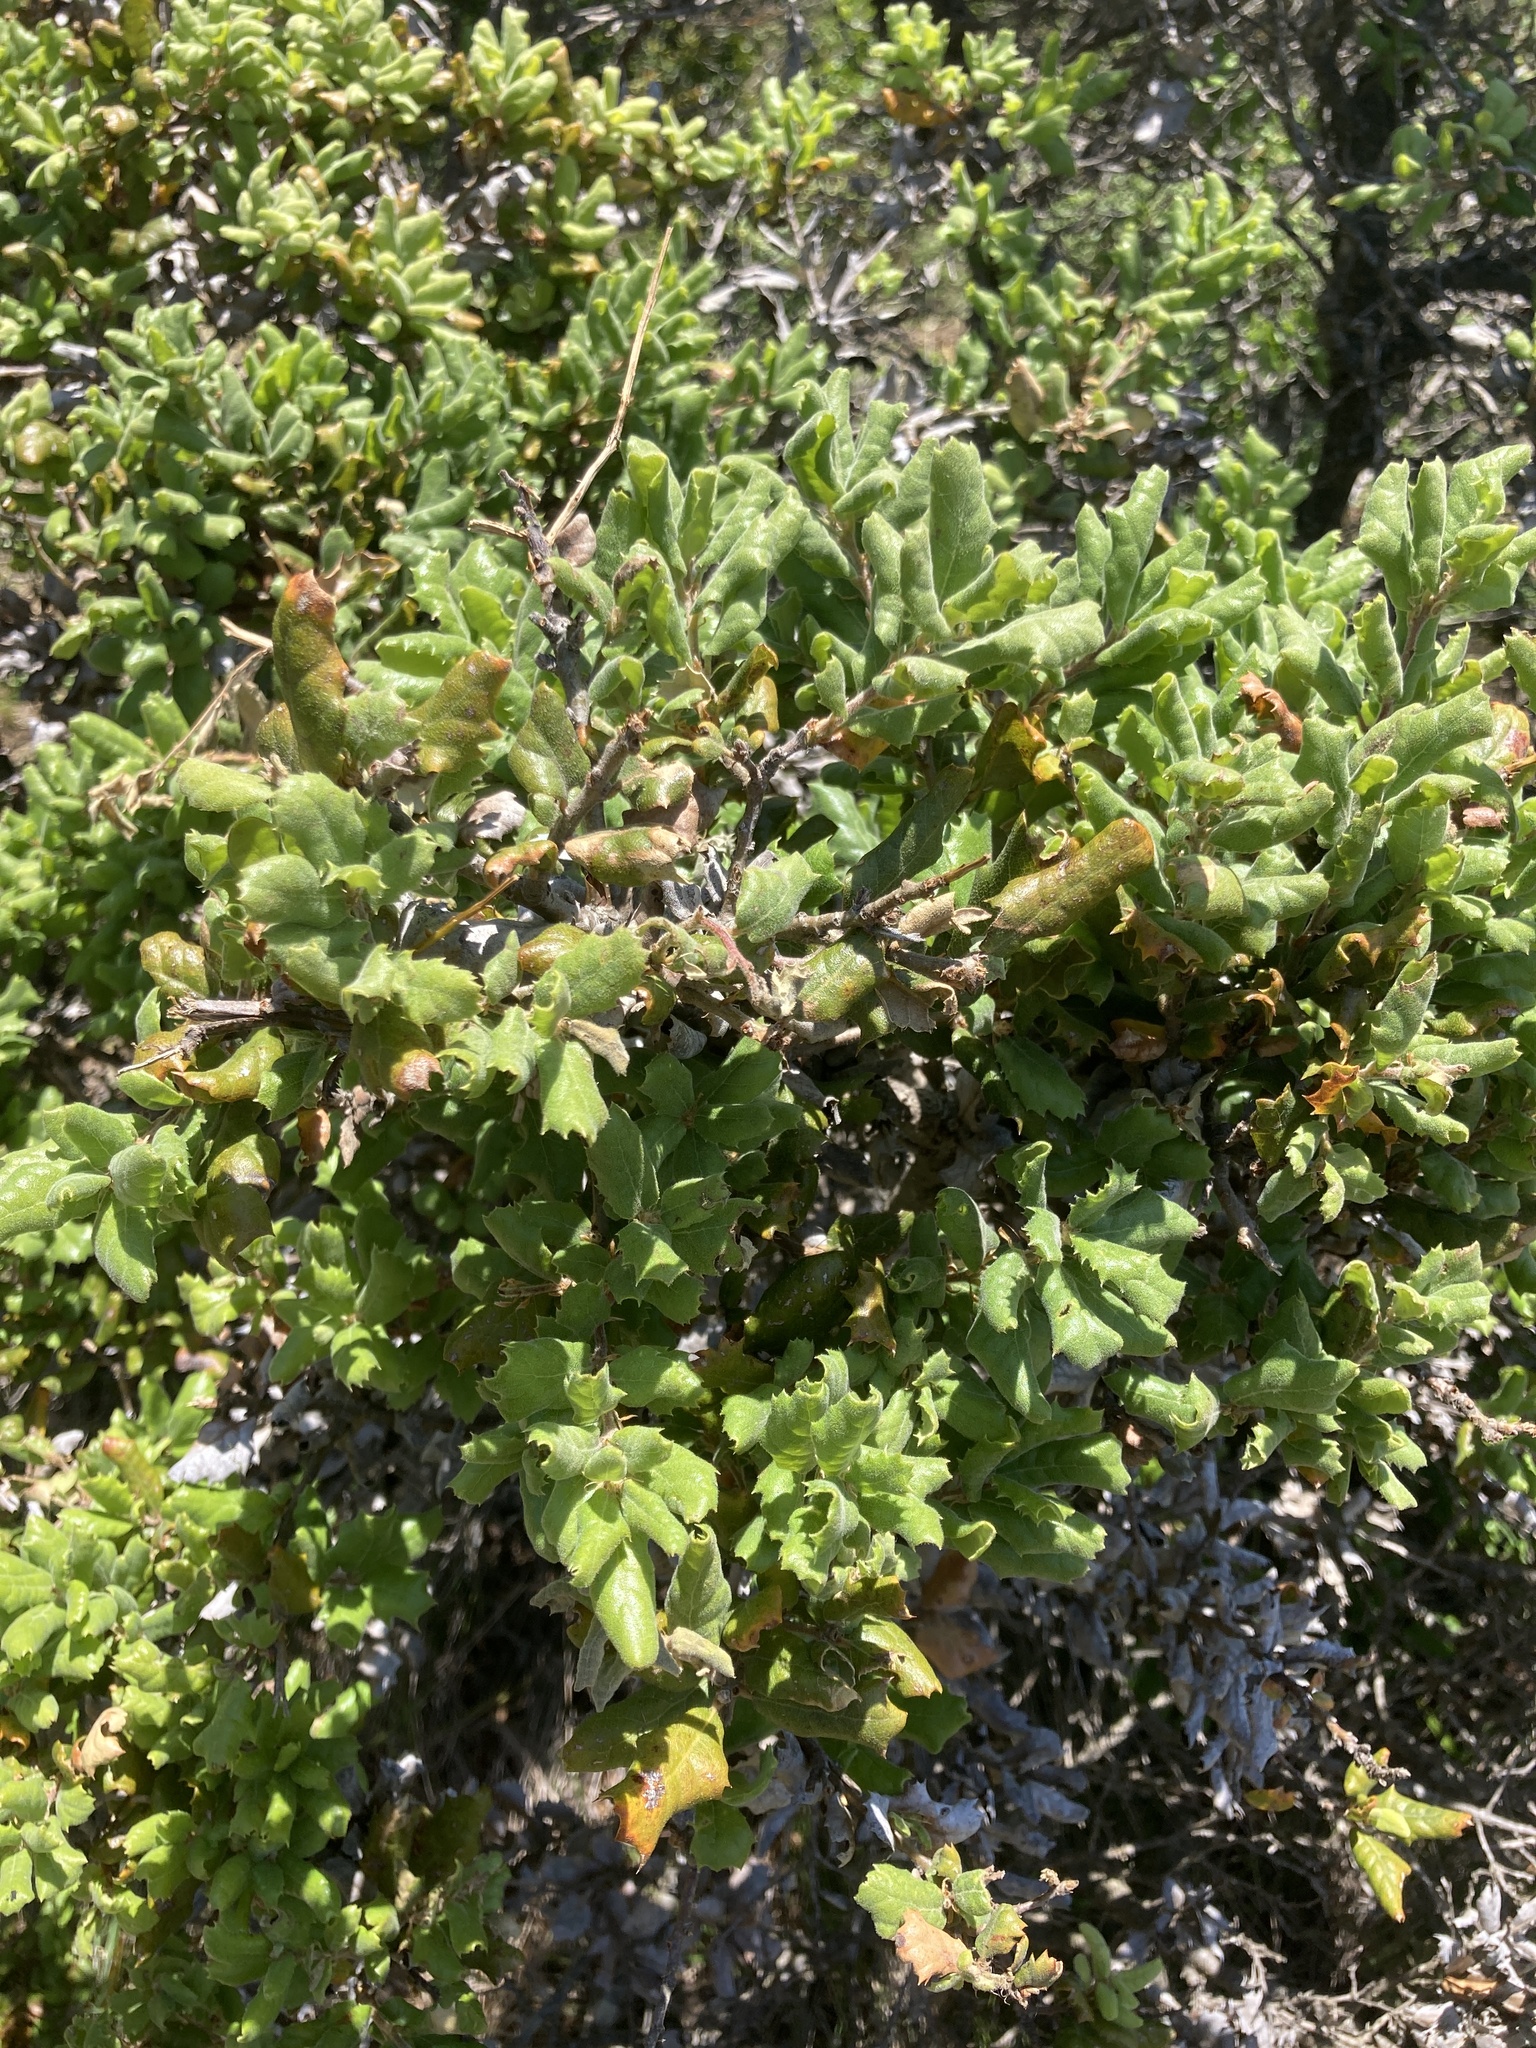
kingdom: Plantae
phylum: Tracheophyta
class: Magnoliopsida
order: Fagales
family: Fagaceae
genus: Quercus
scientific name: Quercus durata
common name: Leather oak
